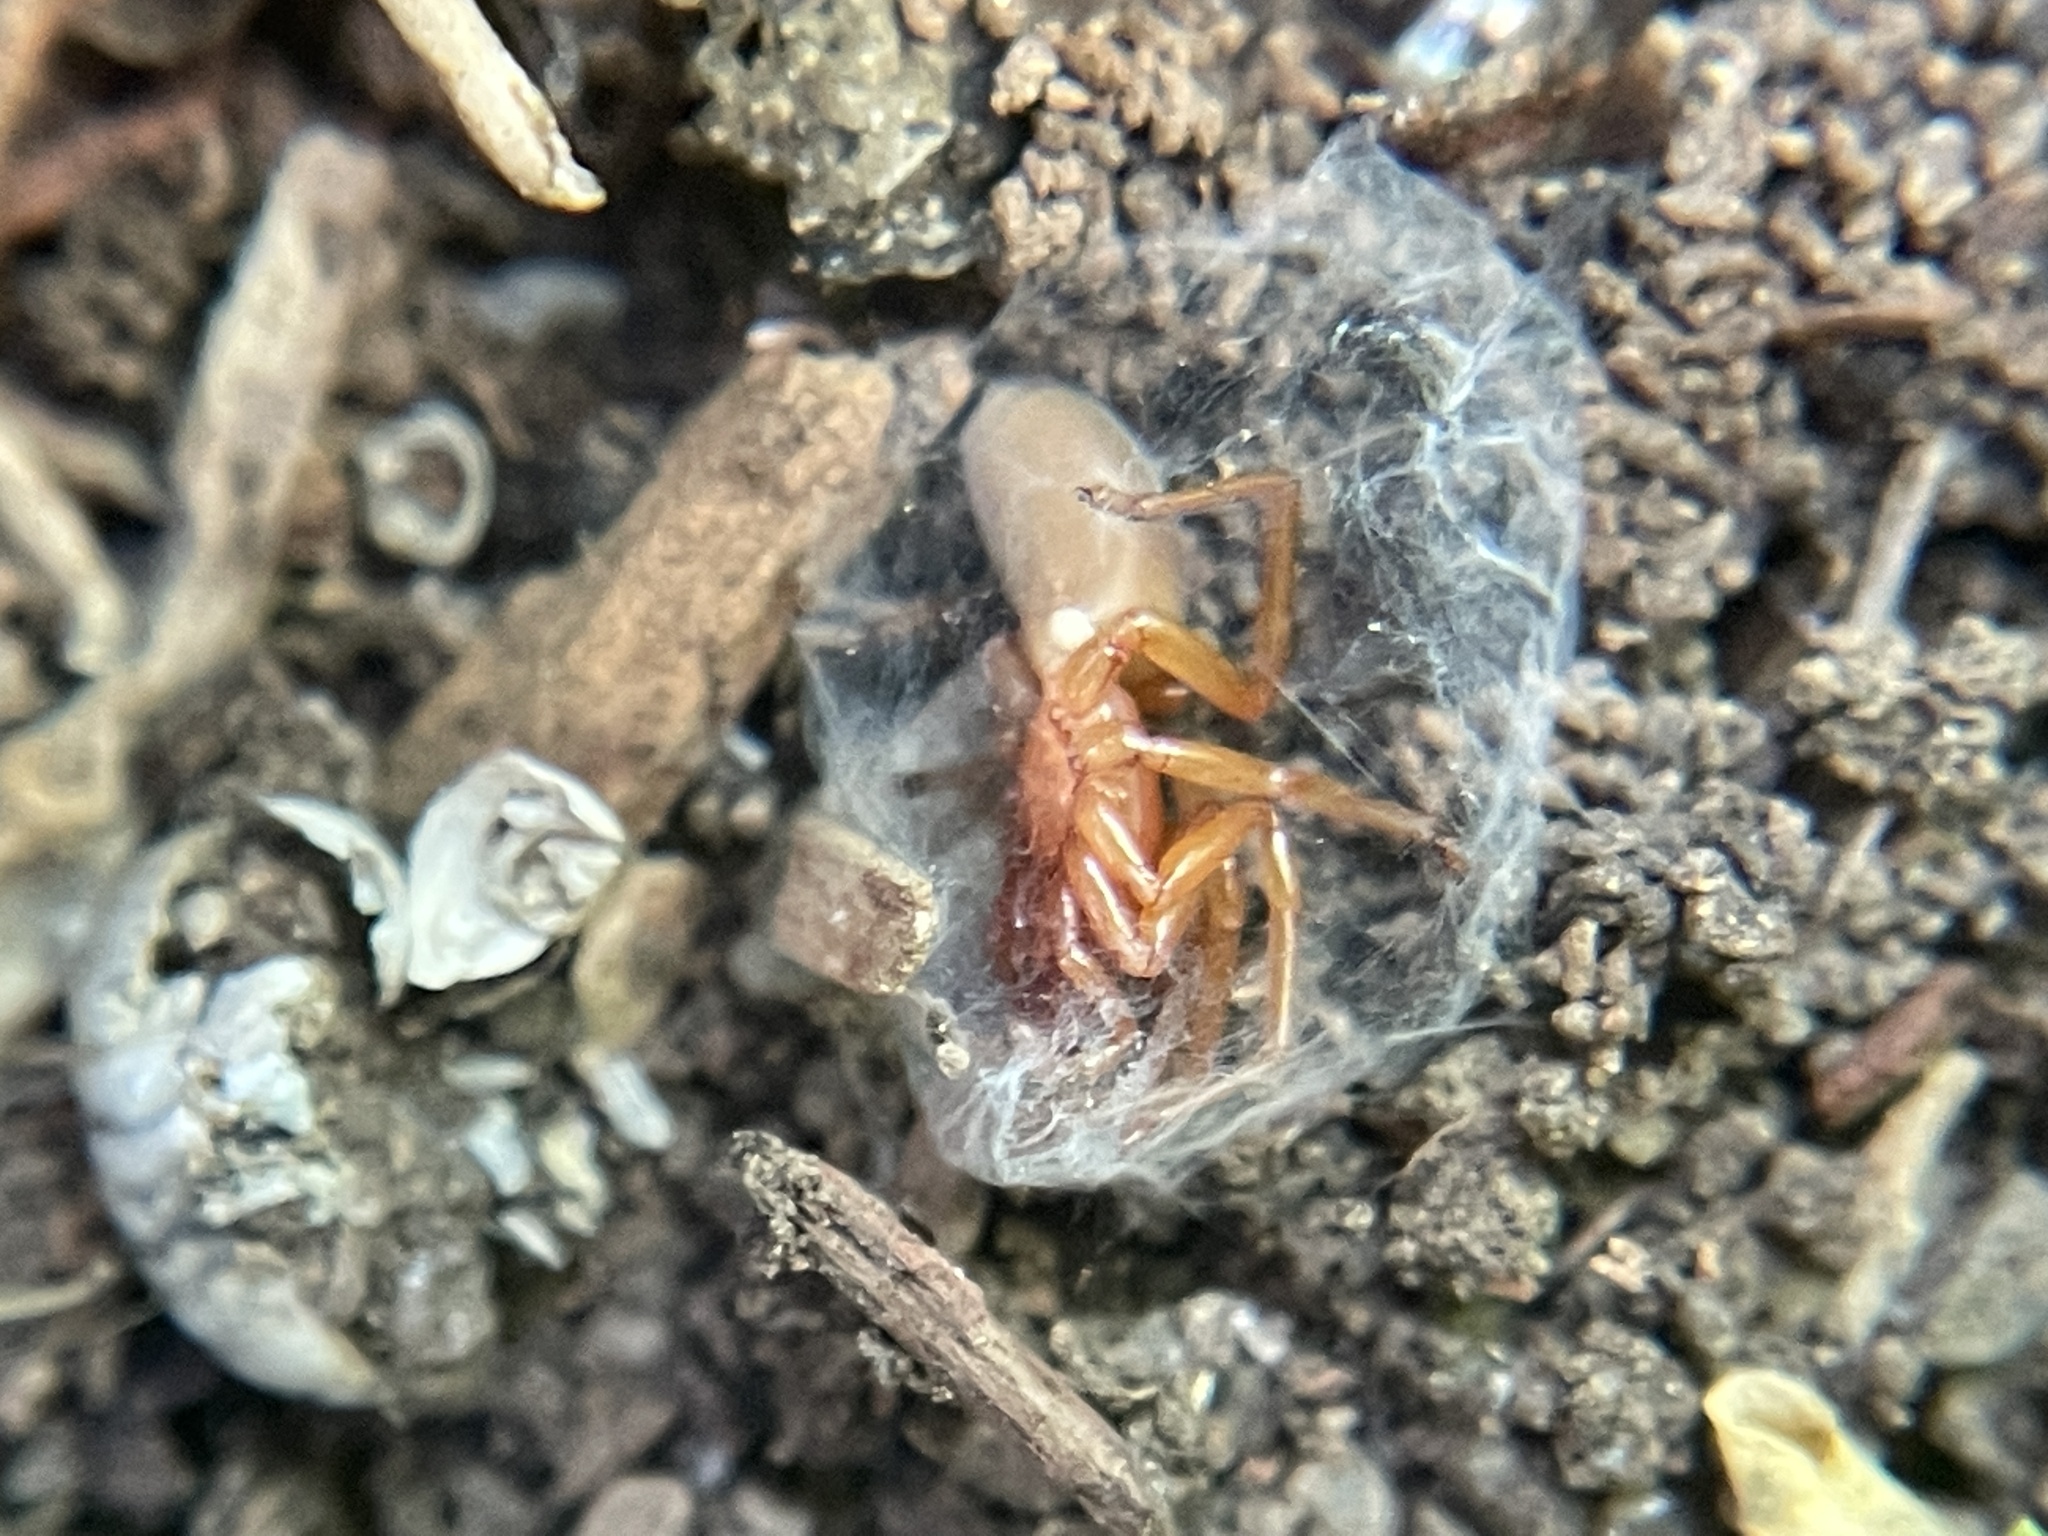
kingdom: Animalia
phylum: Arthropoda
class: Arachnida
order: Araneae
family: Dysderidae
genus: Dysdera
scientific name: Dysdera crocata
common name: Woodlouse spider
